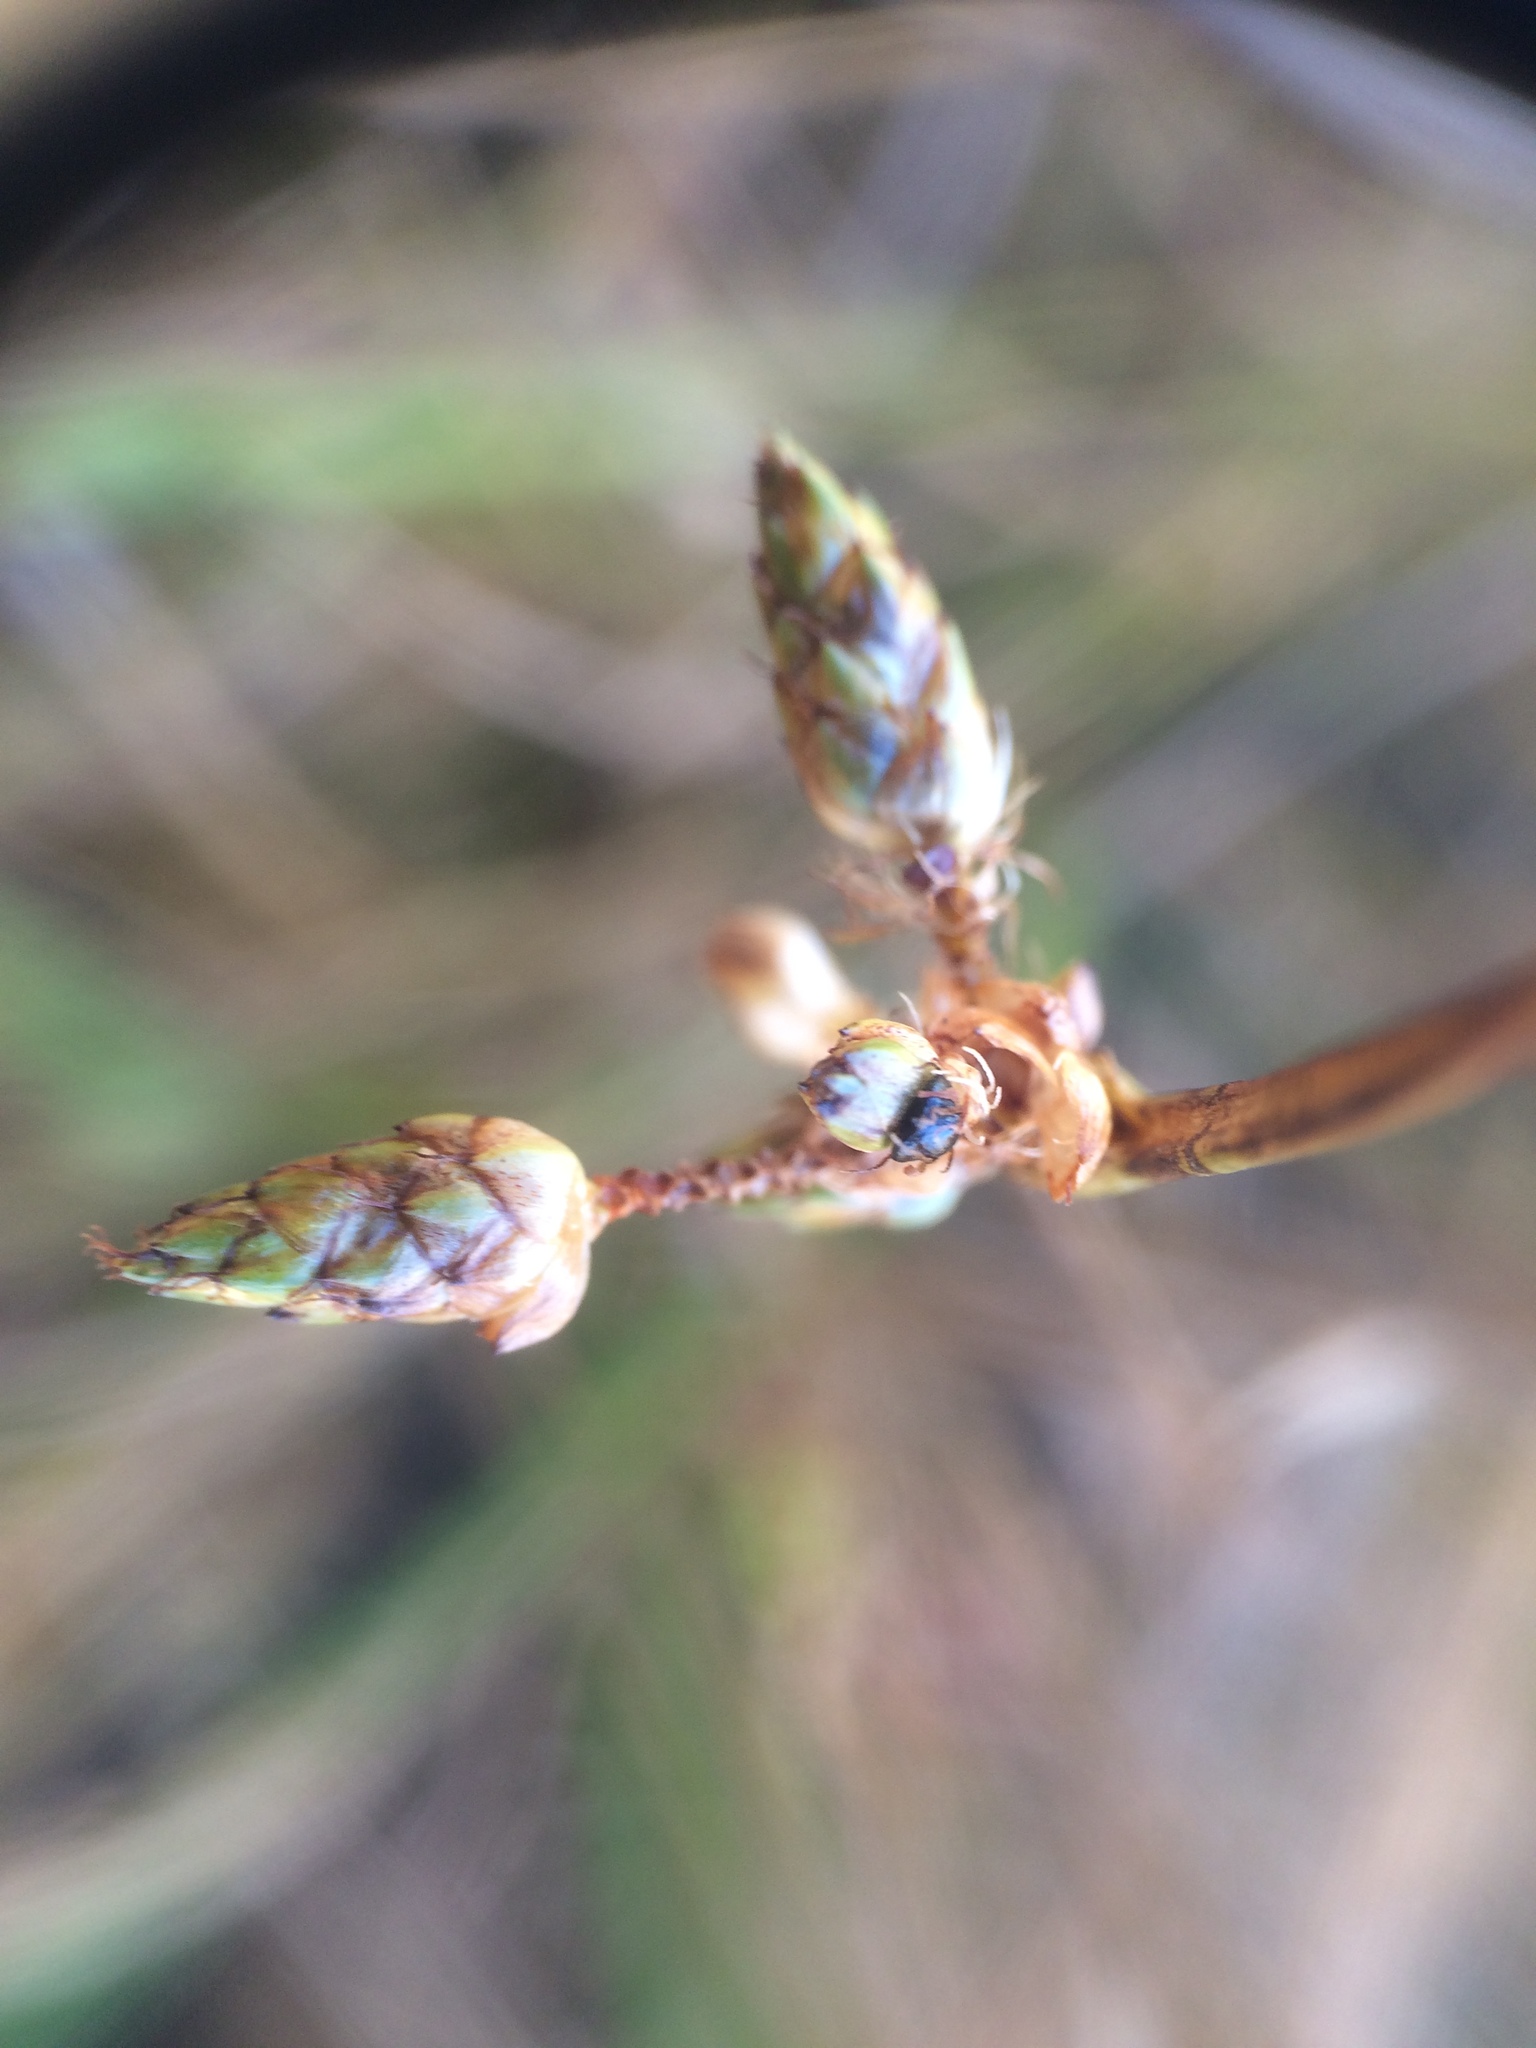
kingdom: Plantae
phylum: Tracheophyta
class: Liliopsida
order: Poales
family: Cyperaceae
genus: Schoenoplectiella
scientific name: Schoenoplectiella purshiana
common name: Weak-stalked bulrush
